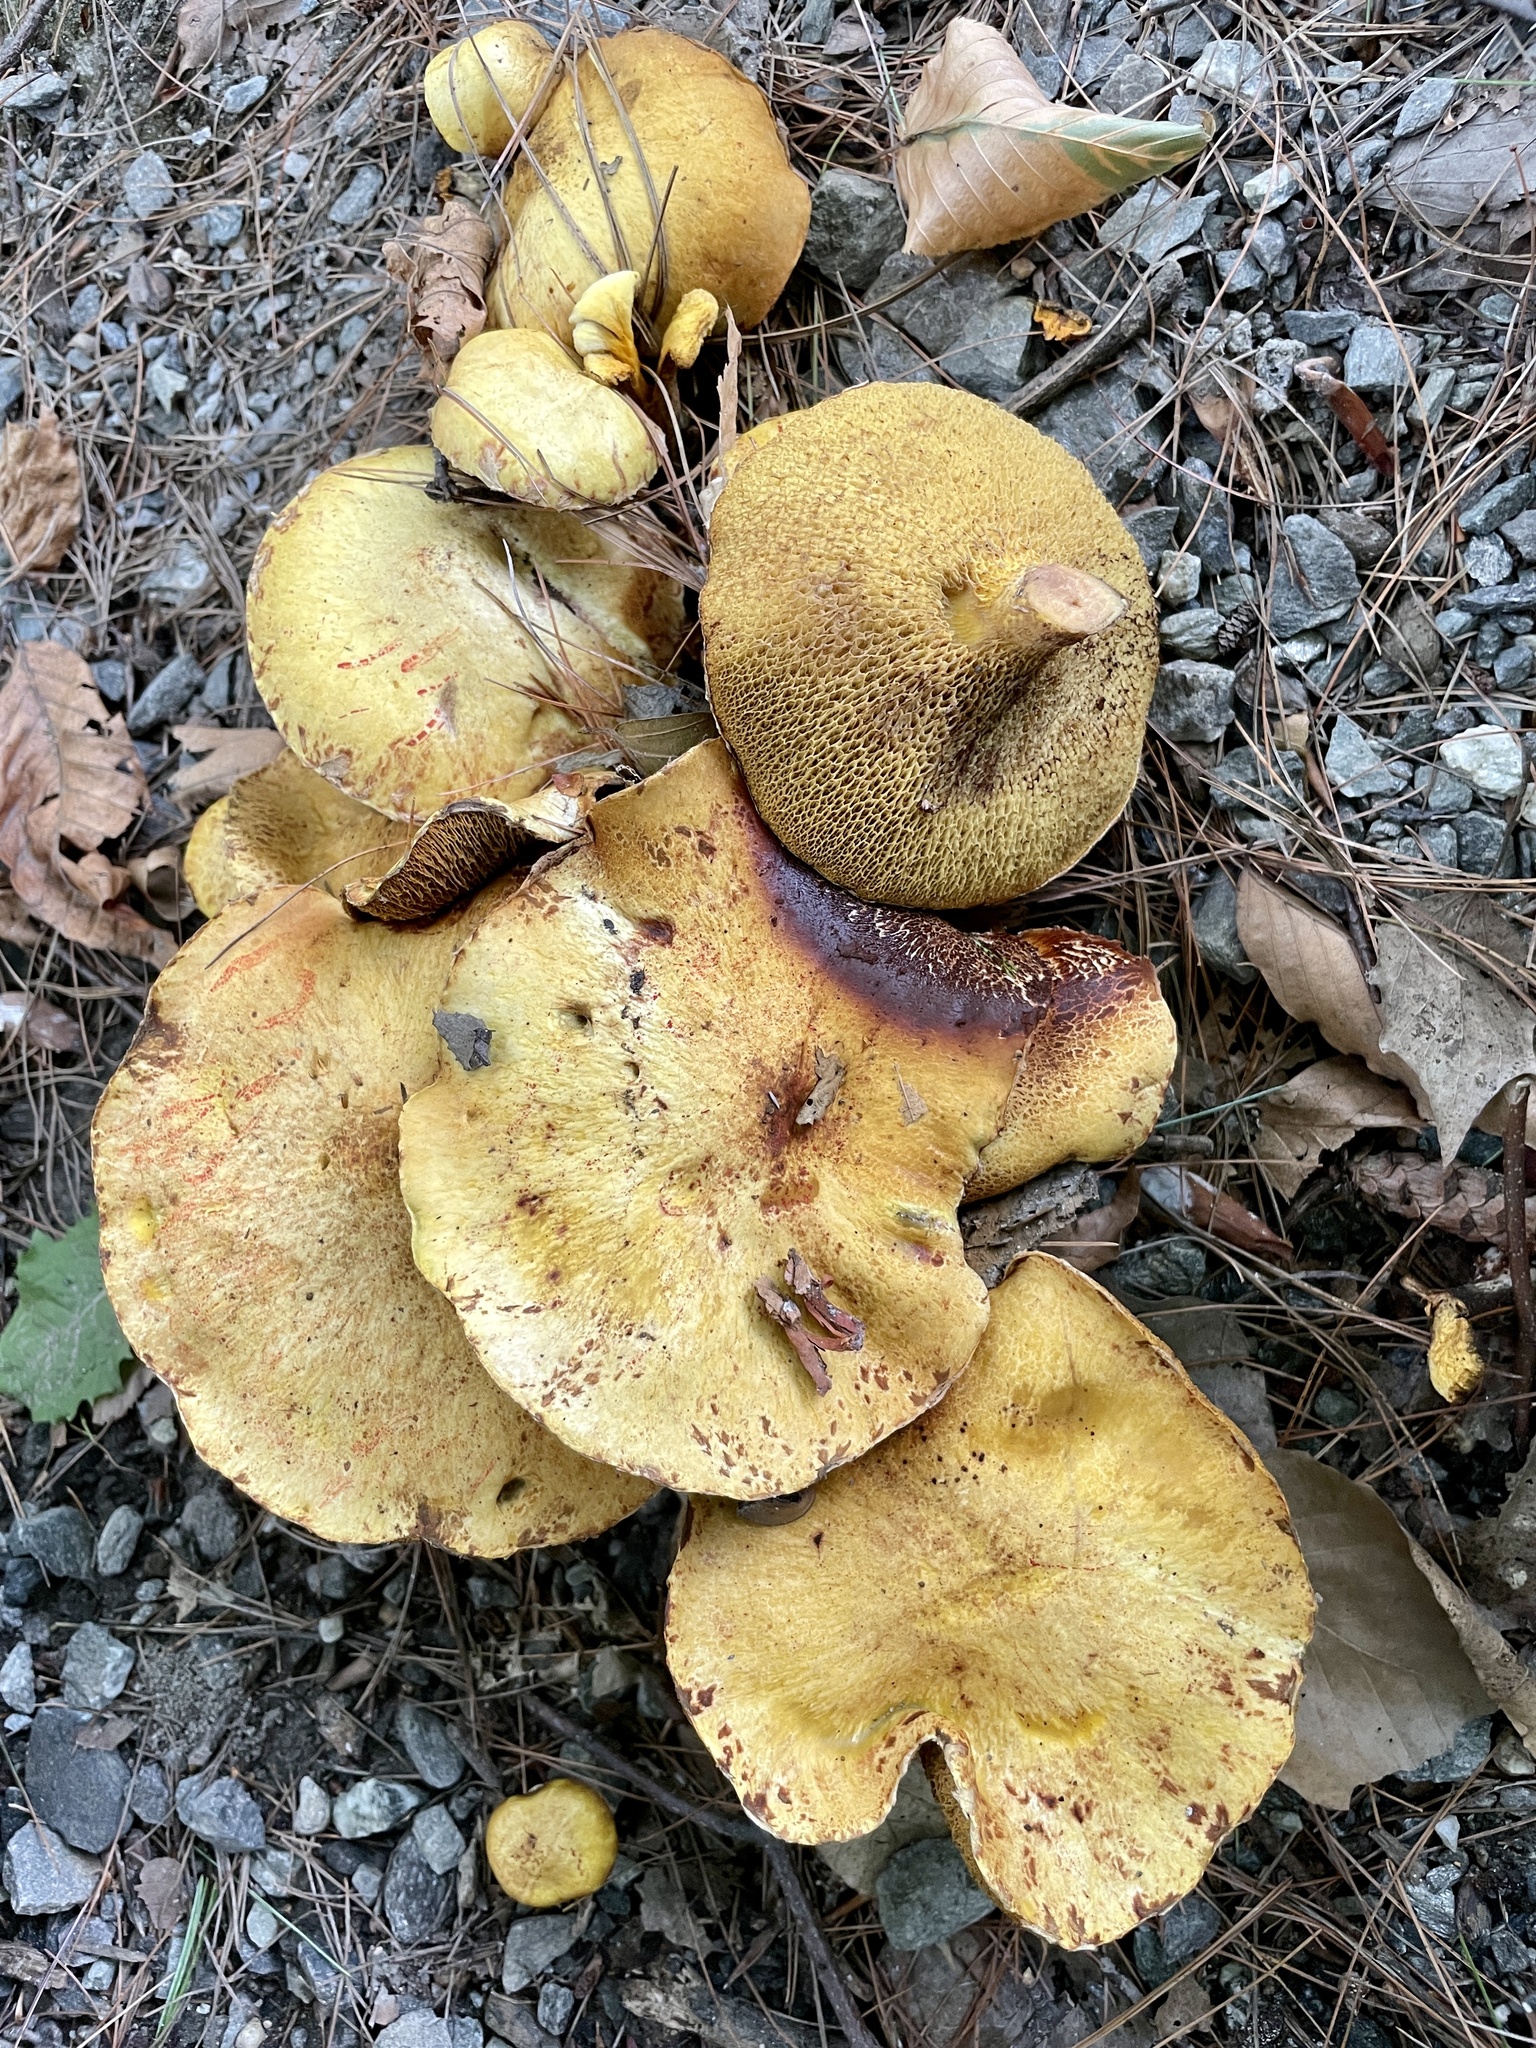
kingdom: Fungi
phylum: Basidiomycota
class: Agaricomycetes
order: Boletales
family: Suillaceae
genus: Suillus
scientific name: Suillus americanus
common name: Chicken fat mushroom
